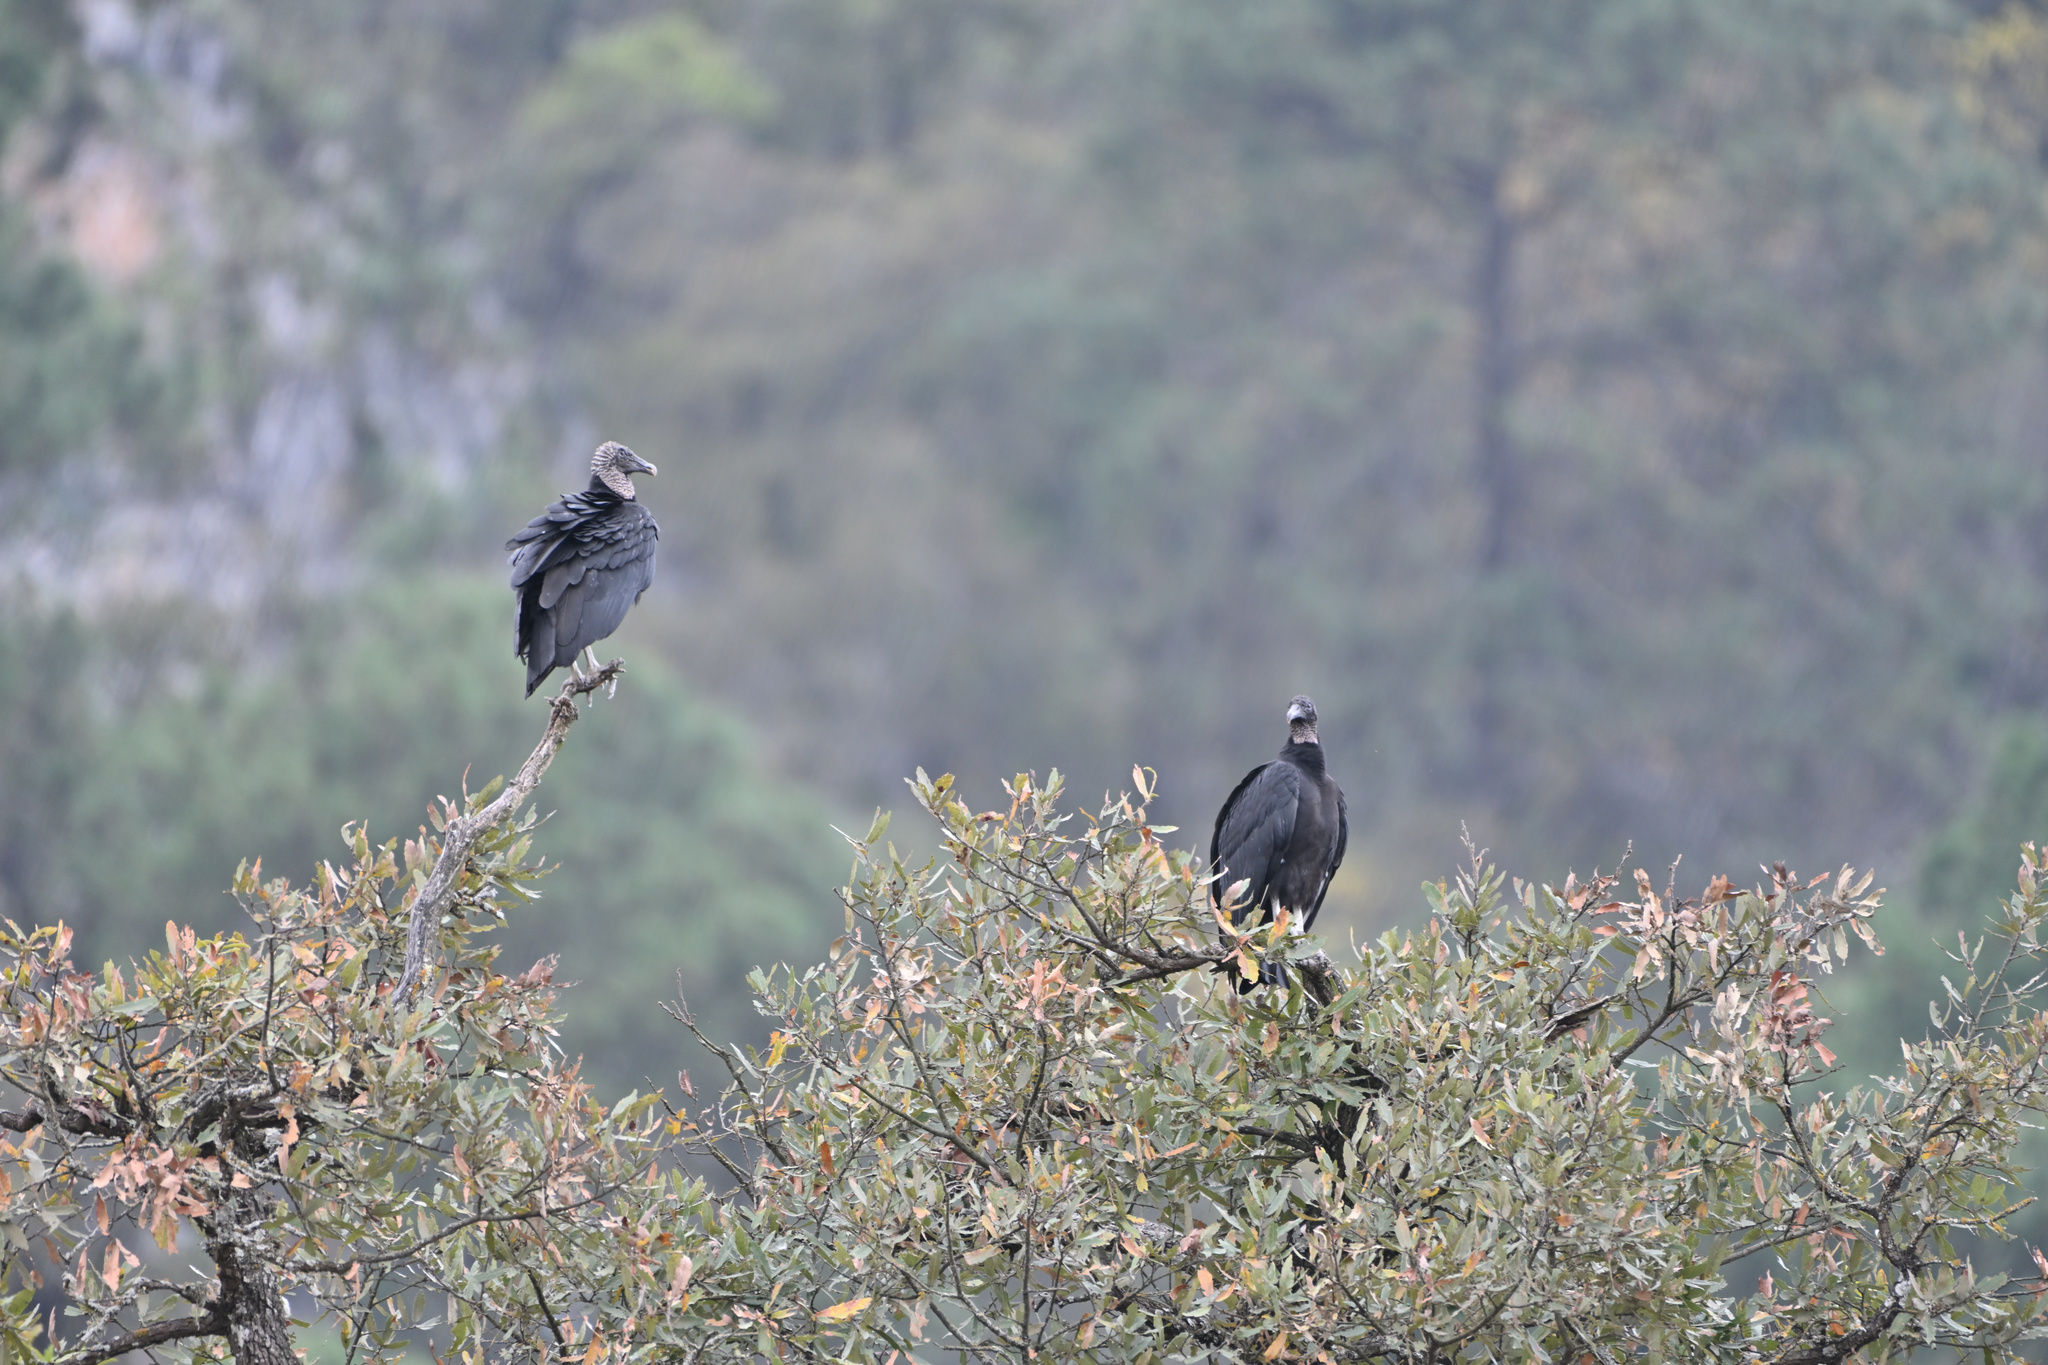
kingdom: Animalia
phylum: Chordata
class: Aves
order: Accipitriformes
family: Cathartidae
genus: Coragyps
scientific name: Coragyps atratus
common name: Black vulture
